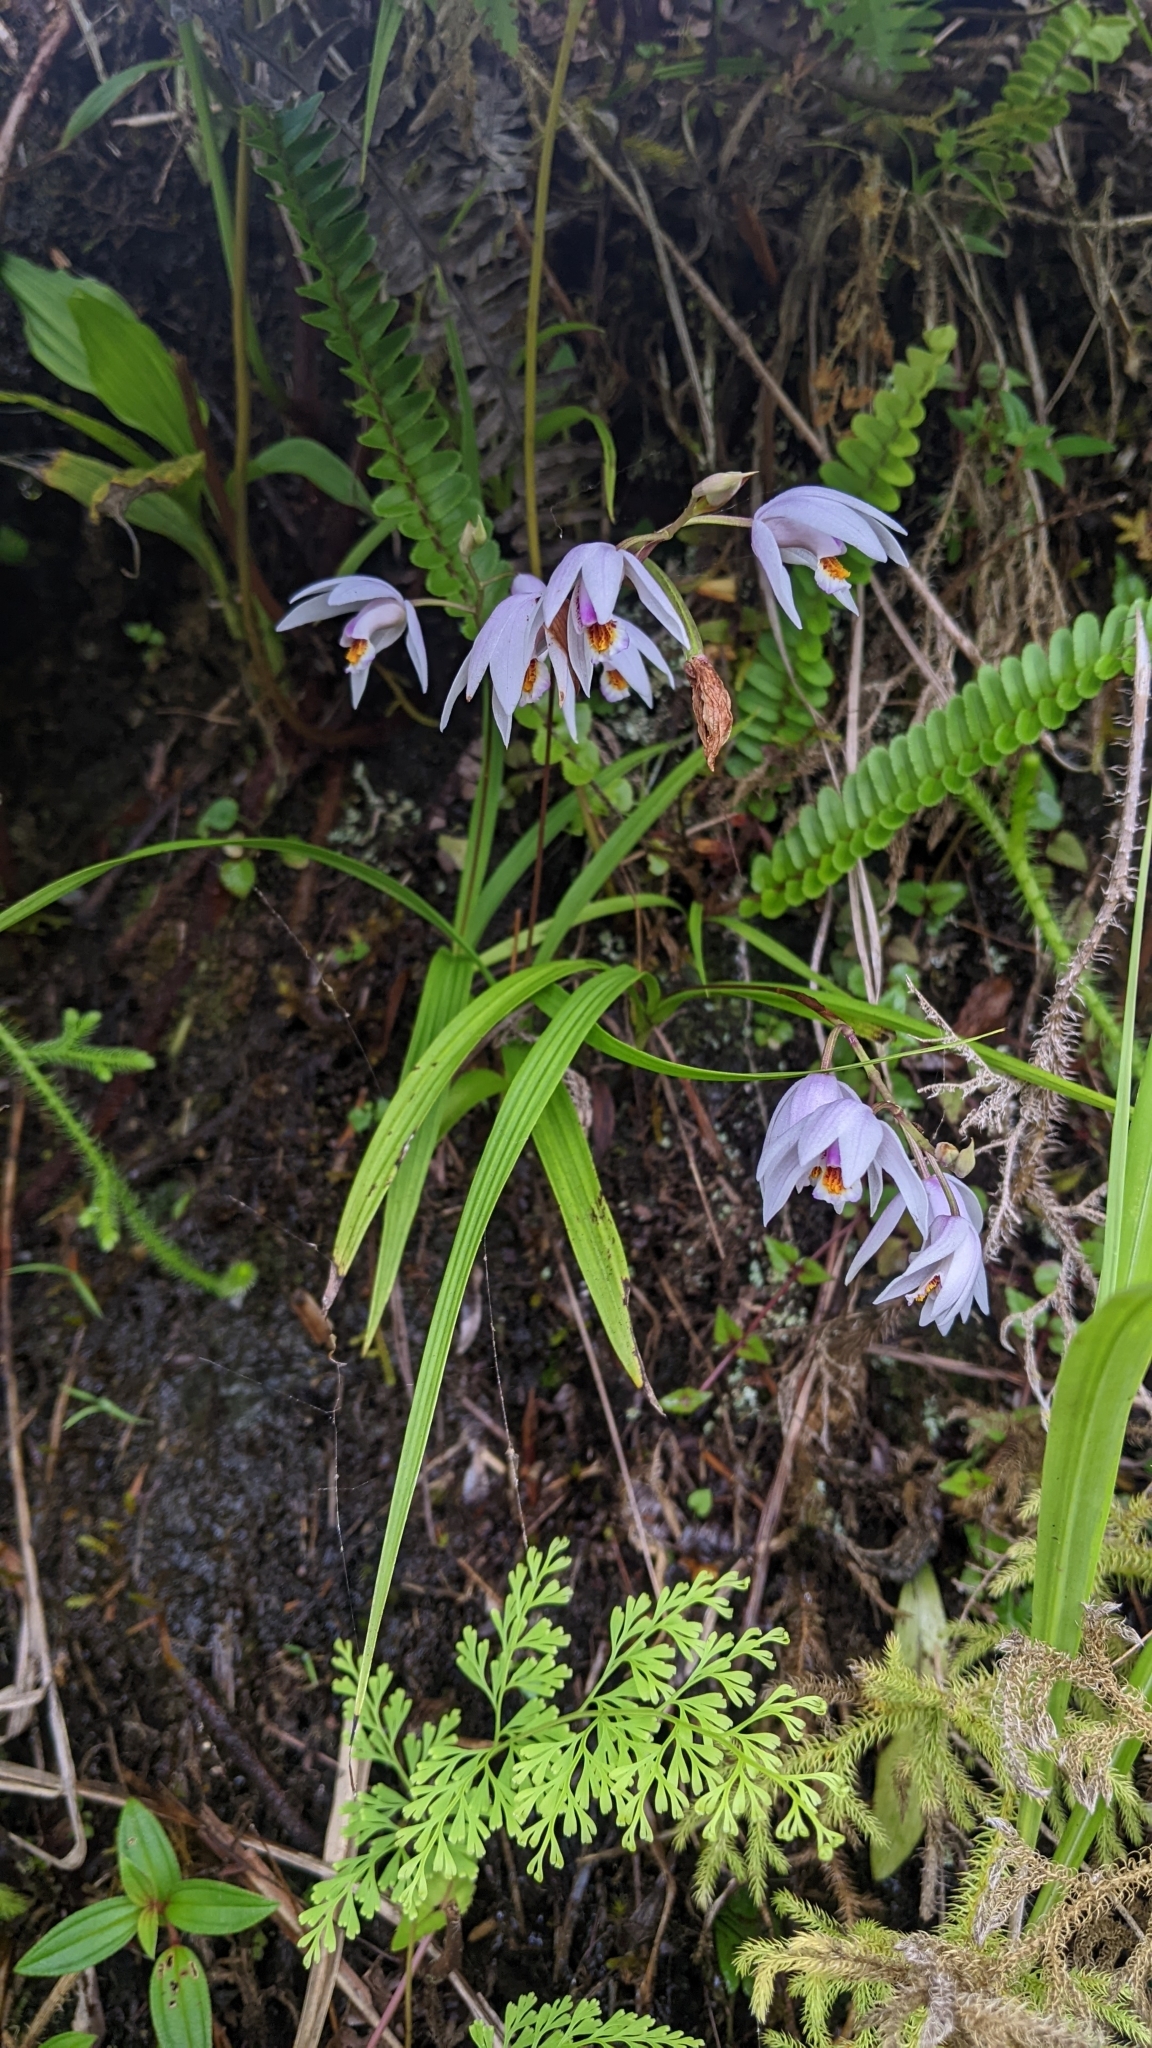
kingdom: Plantae
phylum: Tracheophyta
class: Liliopsida
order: Asparagales
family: Orchidaceae
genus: Bletilla
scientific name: Bletilla formosana
